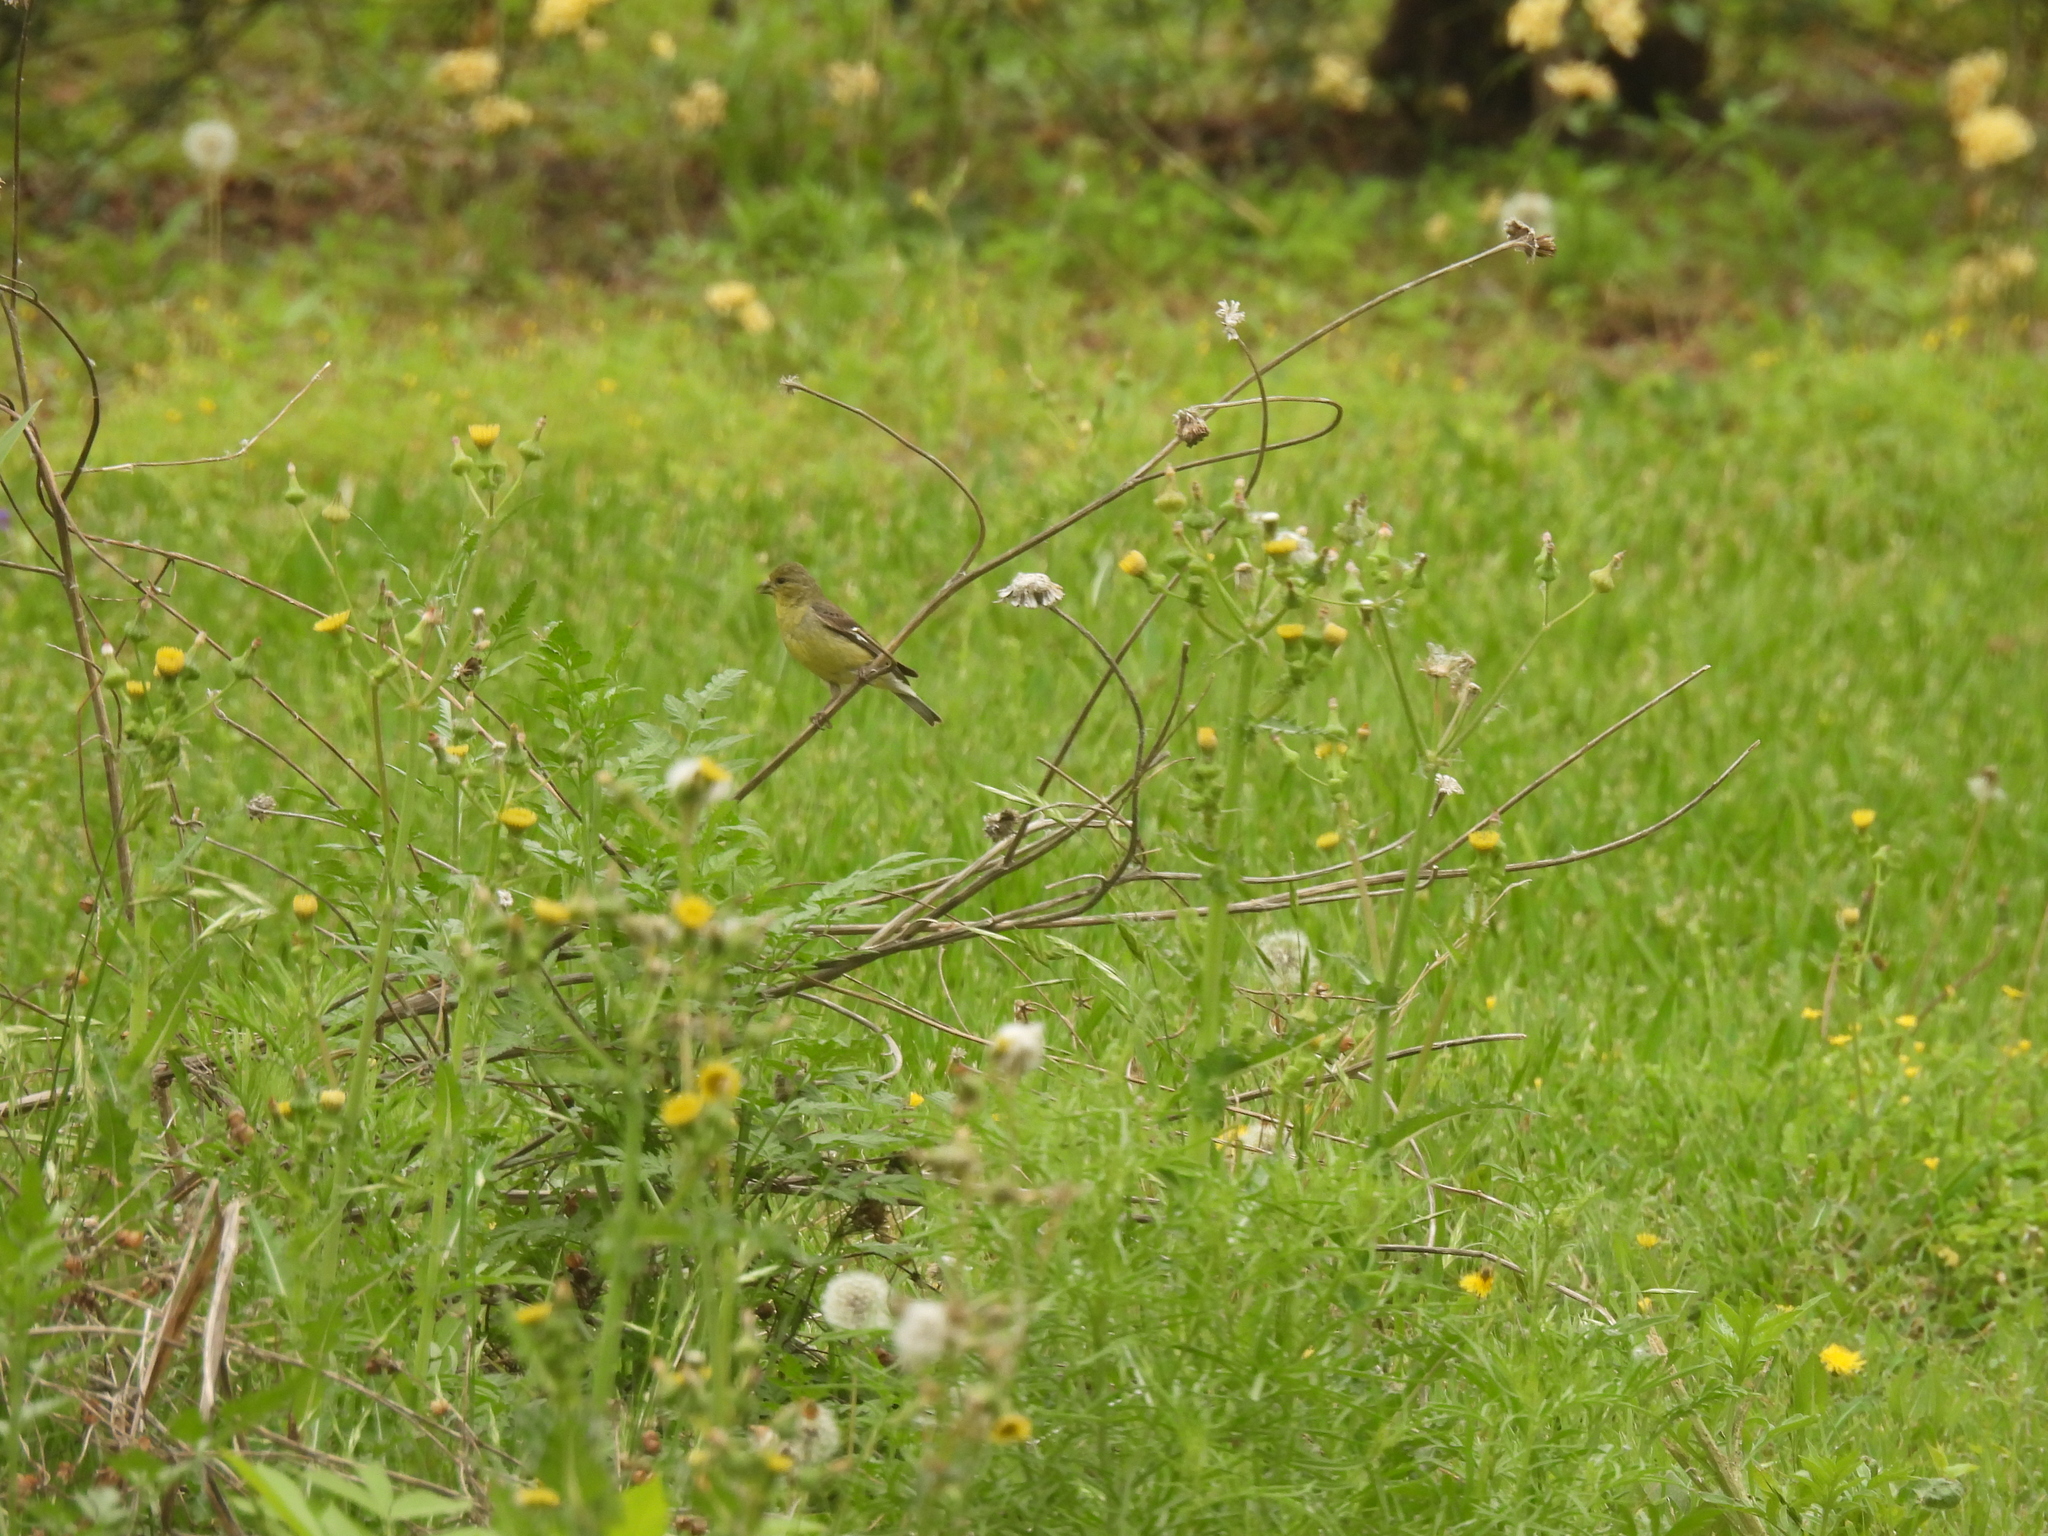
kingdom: Animalia
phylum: Chordata
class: Aves
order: Passeriformes
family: Fringillidae
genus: Spinus
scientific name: Spinus psaltria
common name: Lesser goldfinch
